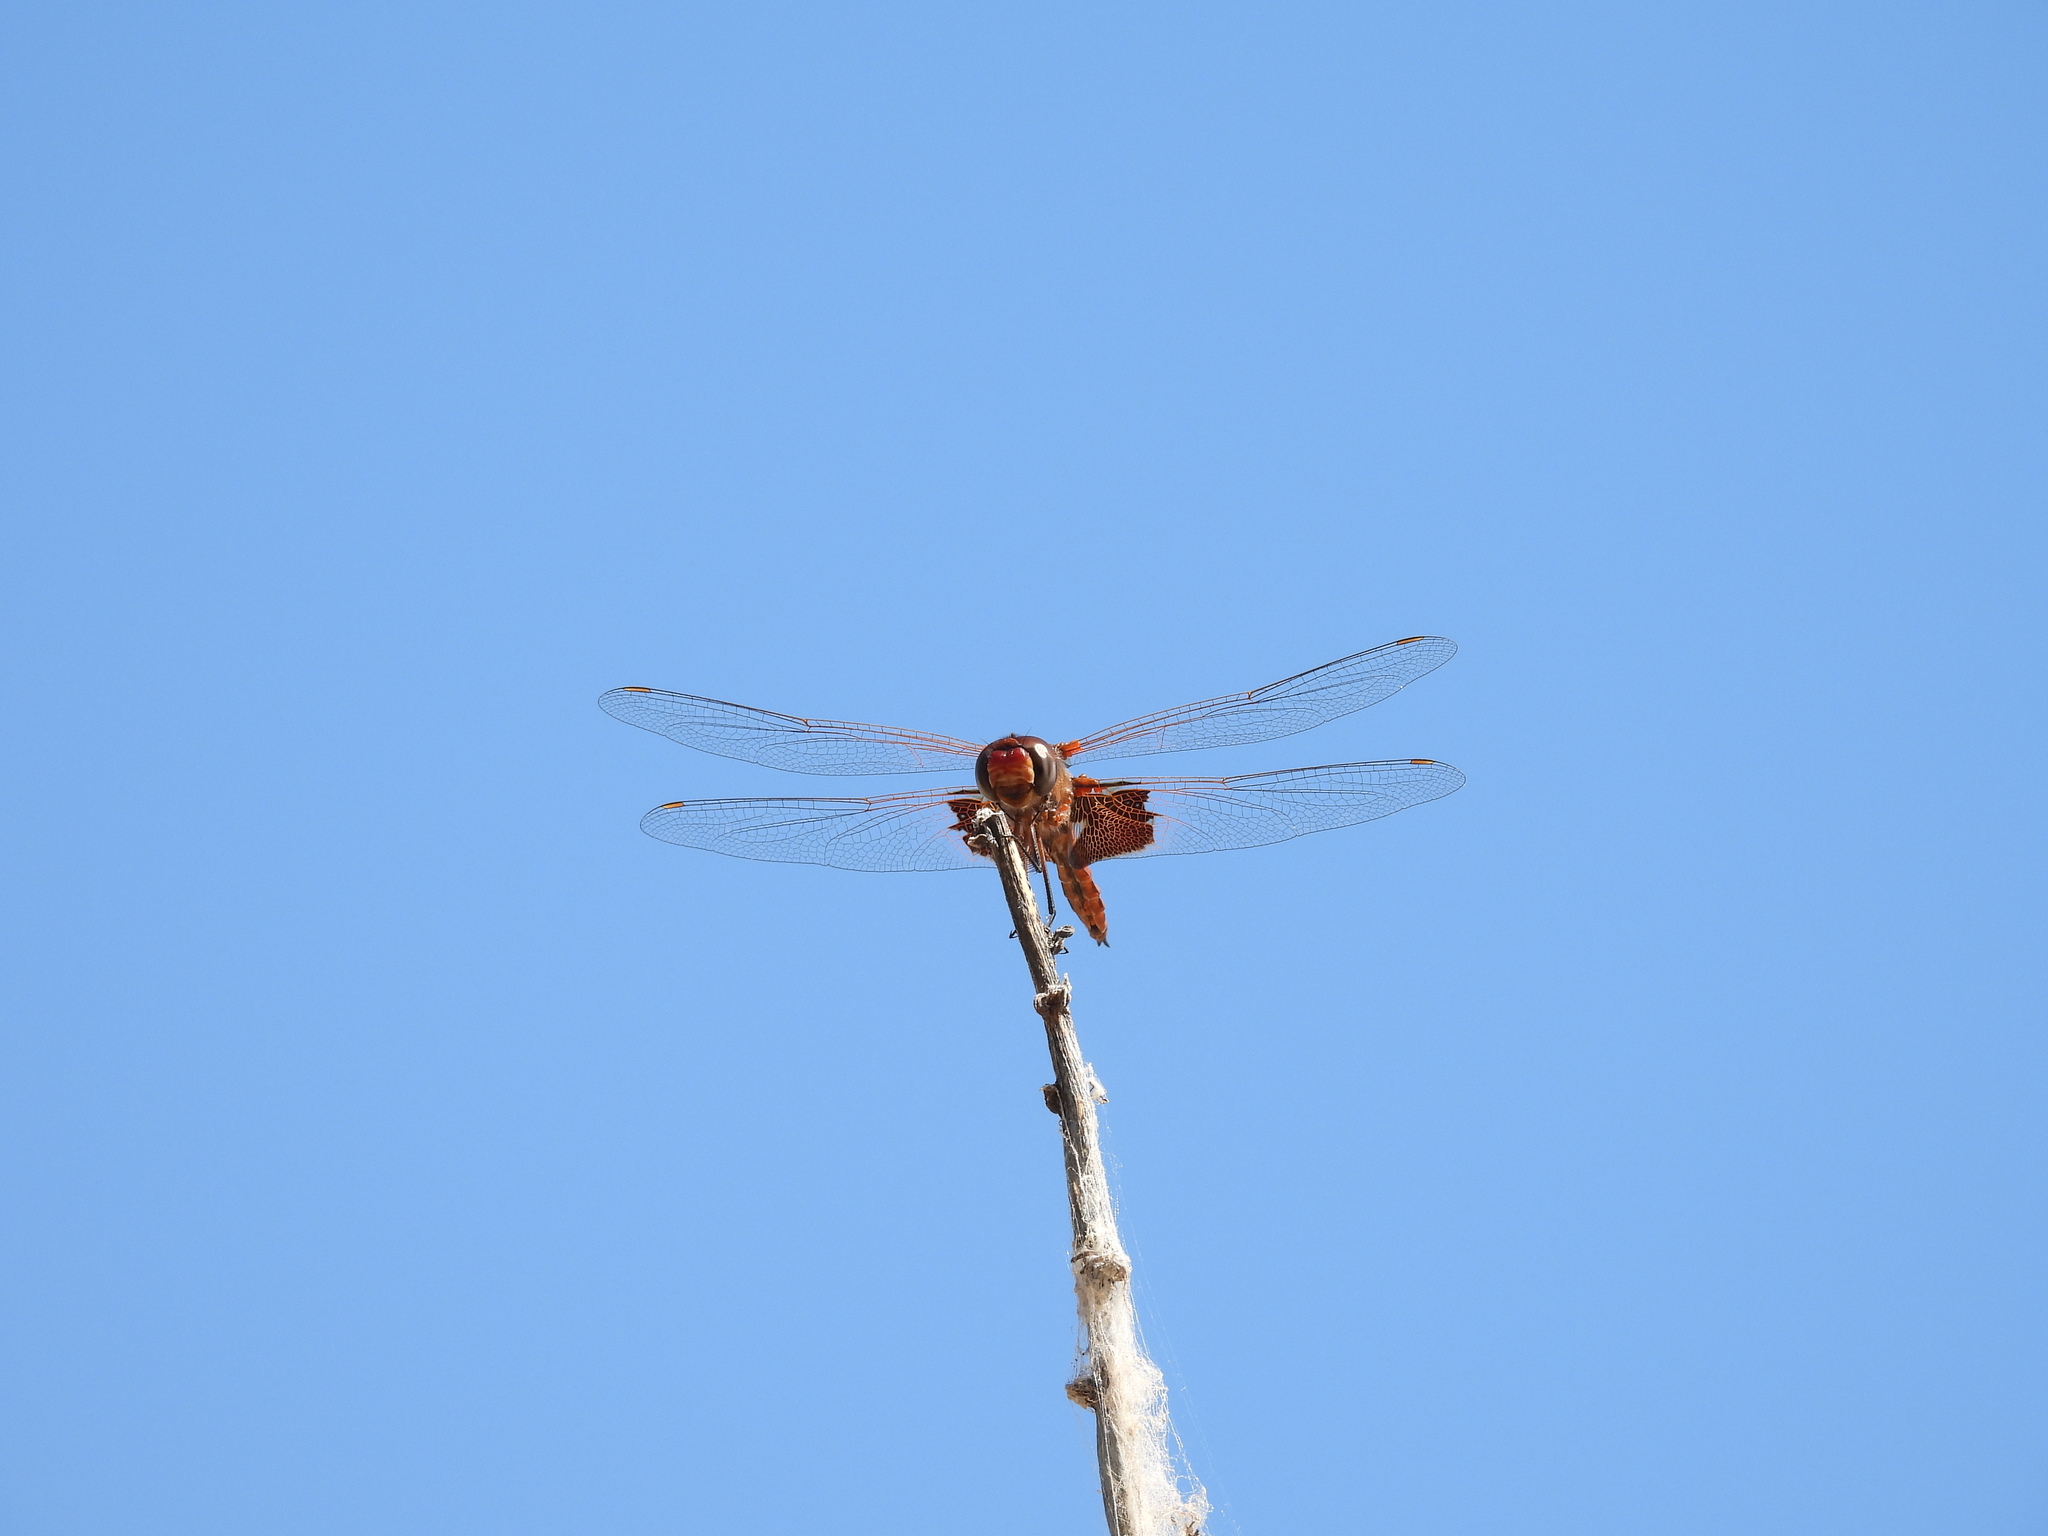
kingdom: Animalia
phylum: Arthropoda
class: Insecta
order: Odonata
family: Libellulidae
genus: Tramea
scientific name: Tramea onusta
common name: Red saddlebags
